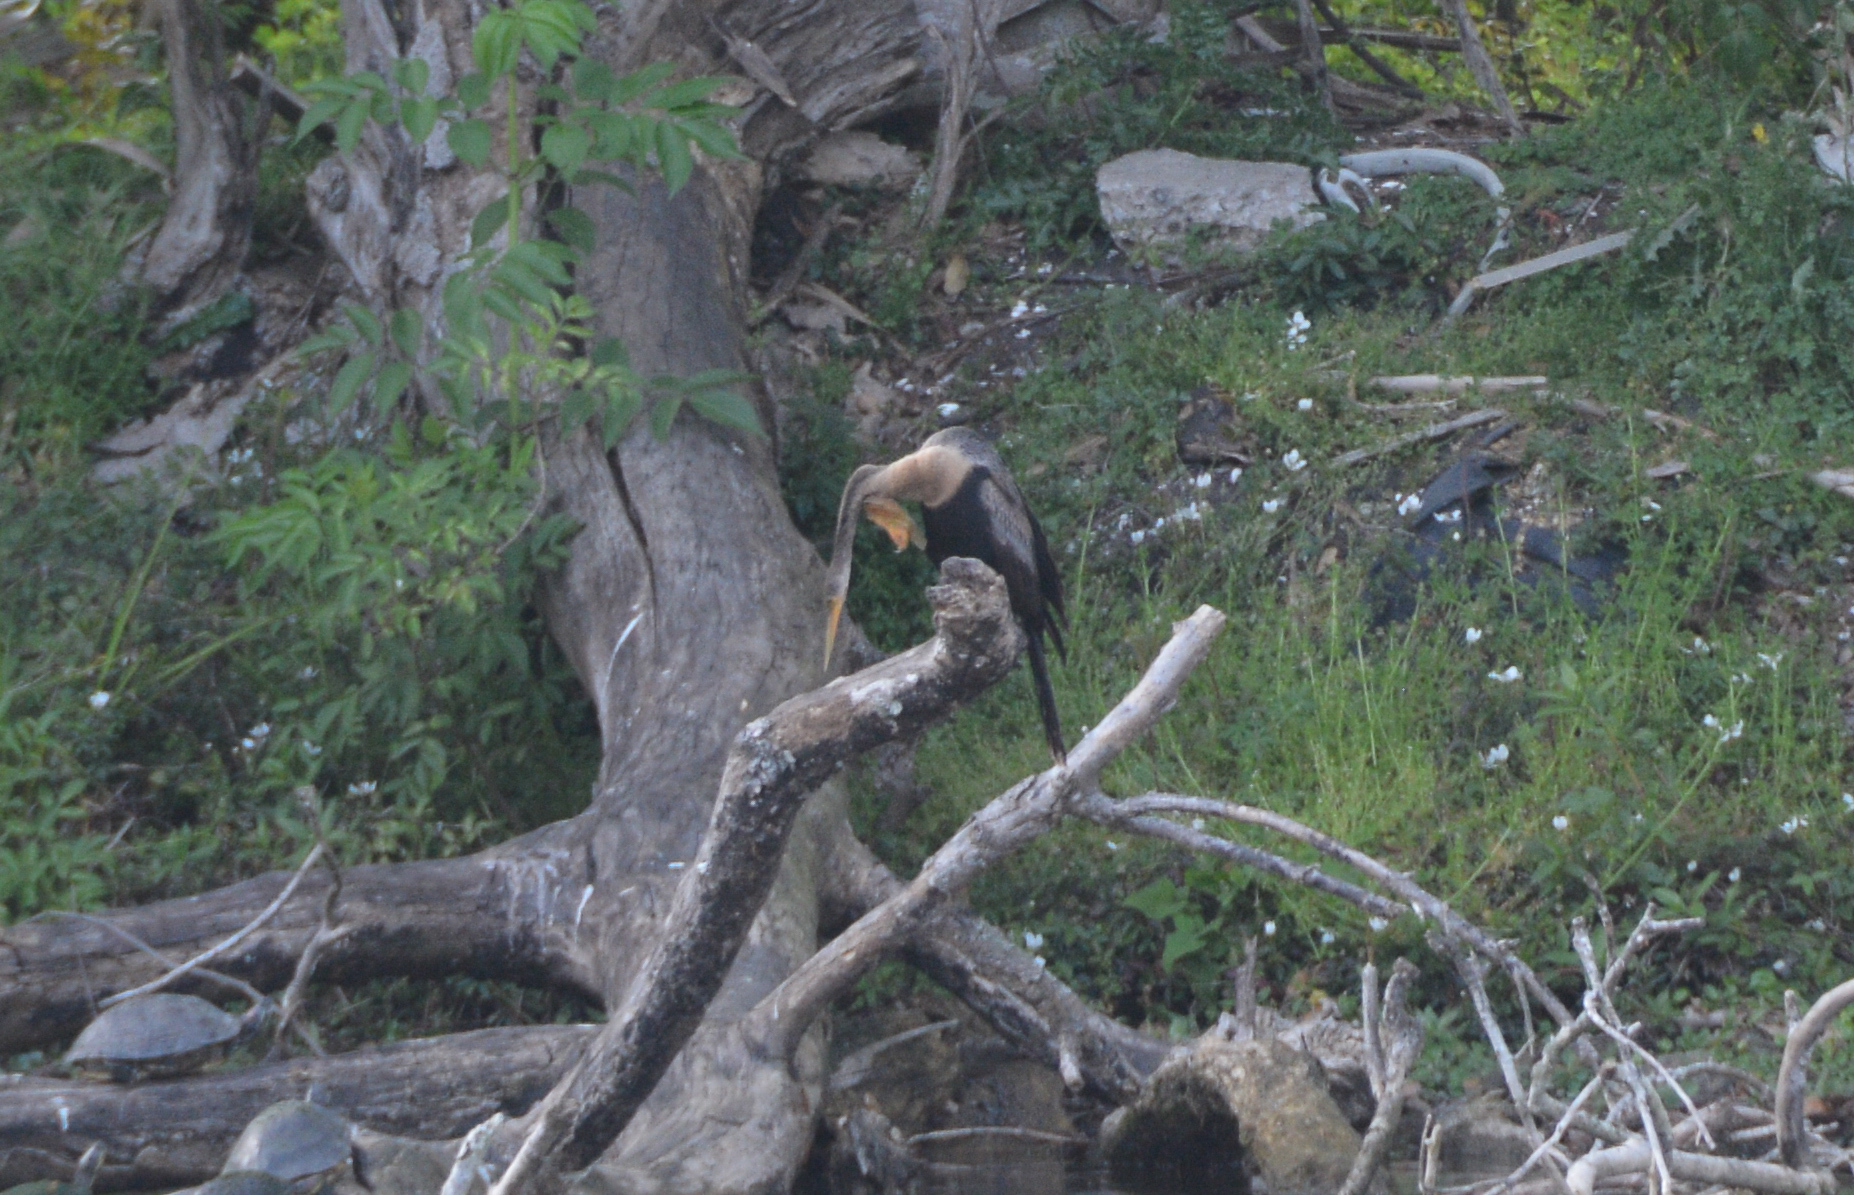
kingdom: Animalia
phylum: Chordata
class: Aves
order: Suliformes
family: Anhingidae
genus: Anhinga
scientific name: Anhinga anhinga
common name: Anhinga
